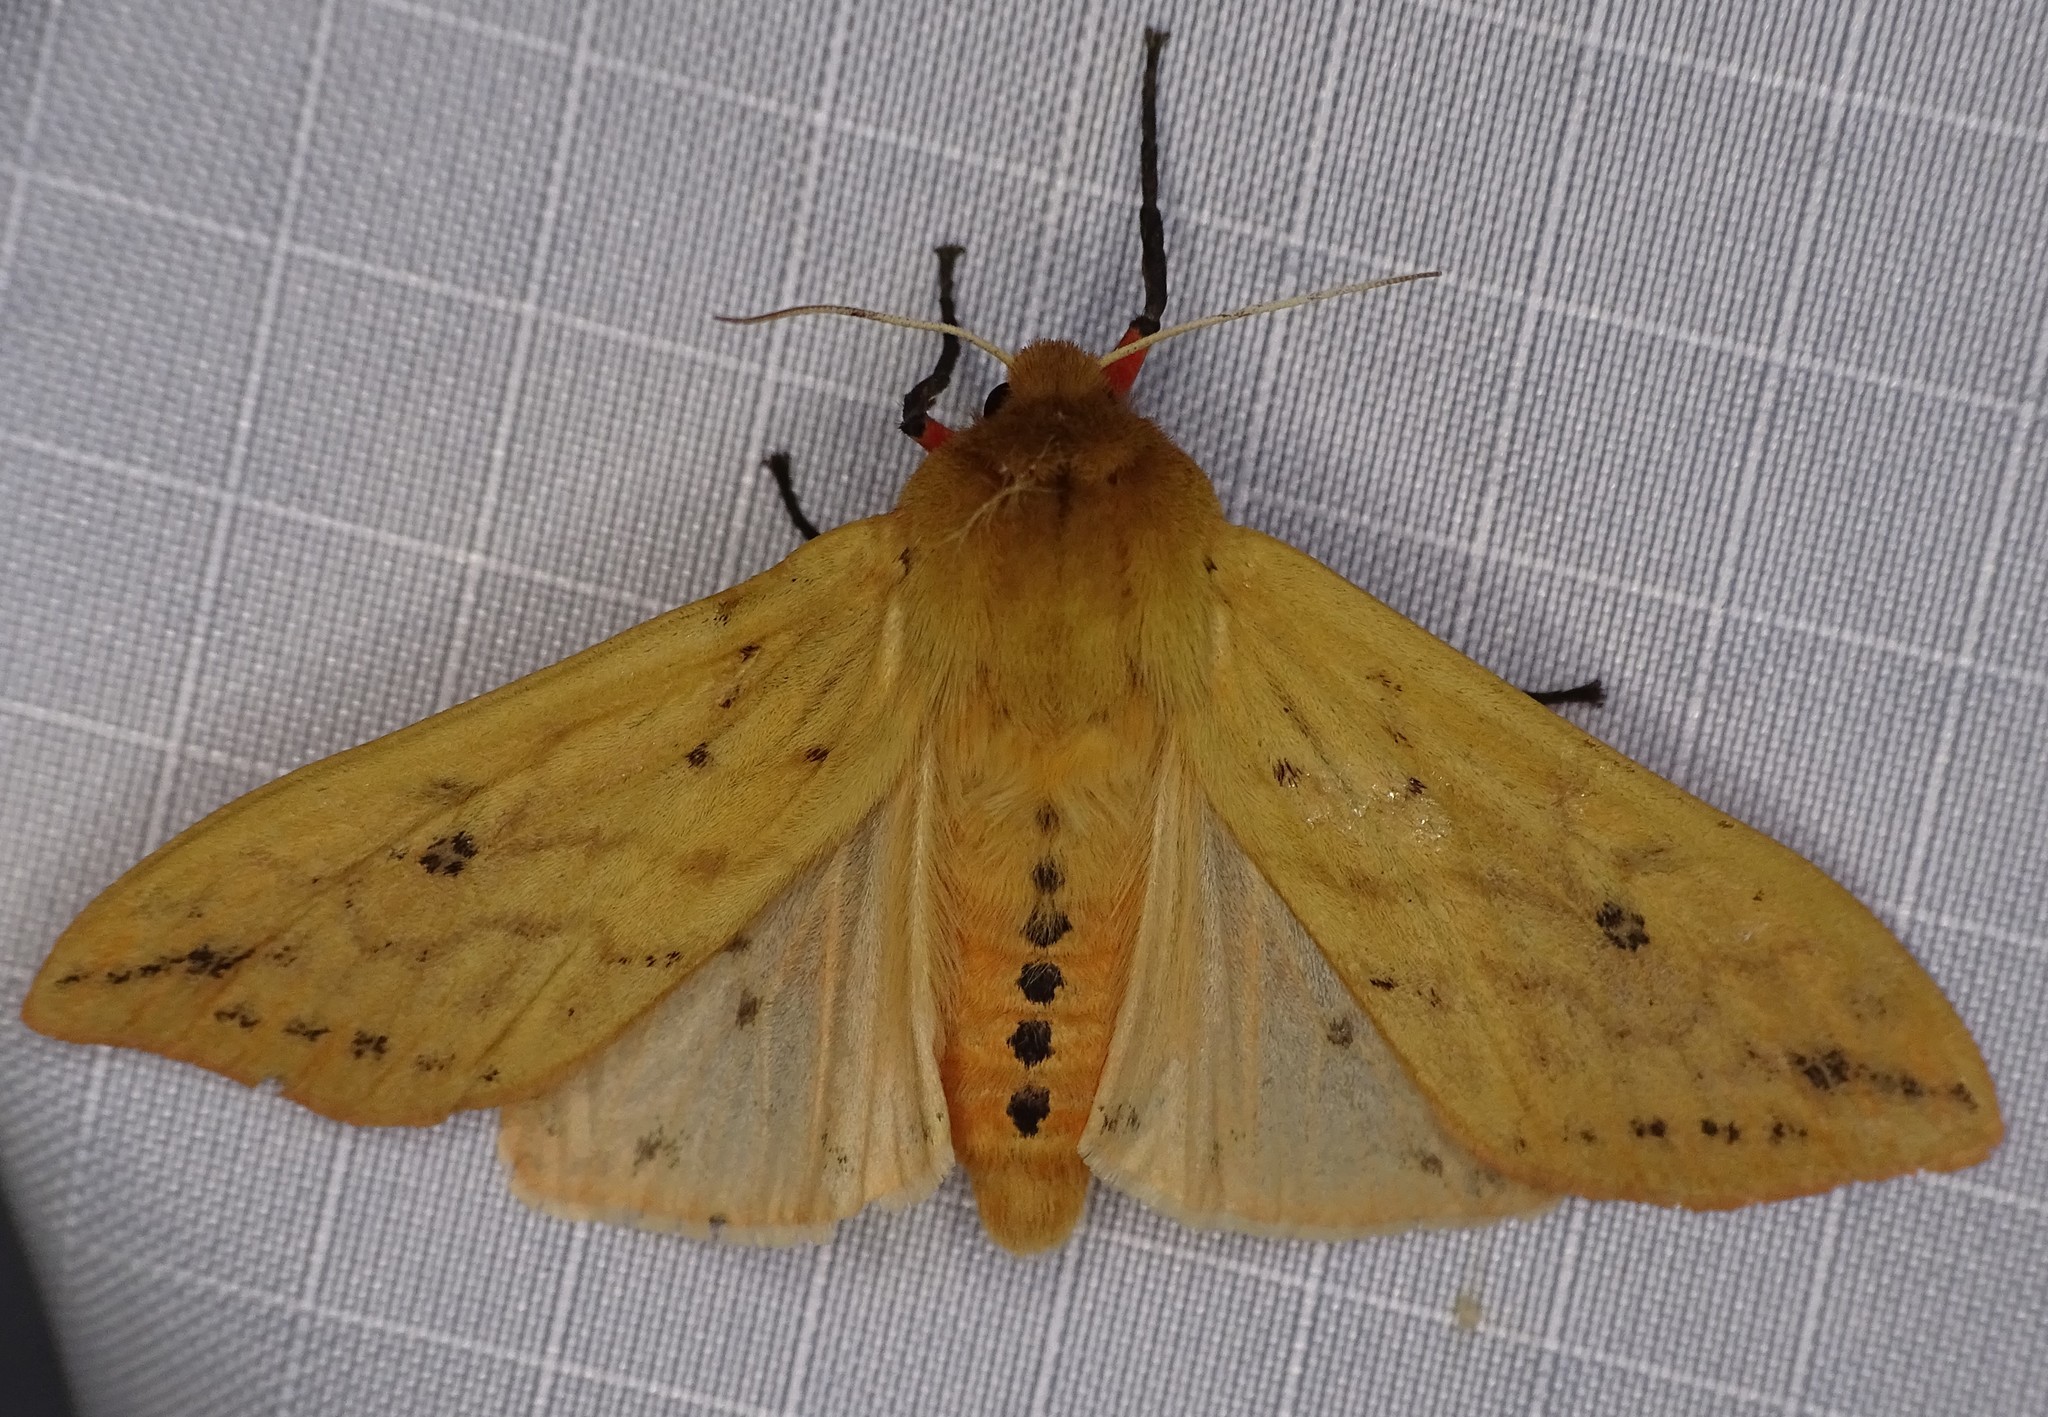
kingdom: Animalia
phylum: Arthropoda
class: Insecta
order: Lepidoptera
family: Erebidae
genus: Pyrrharctia
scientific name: Pyrrharctia isabella
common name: Isabella tiger moth
